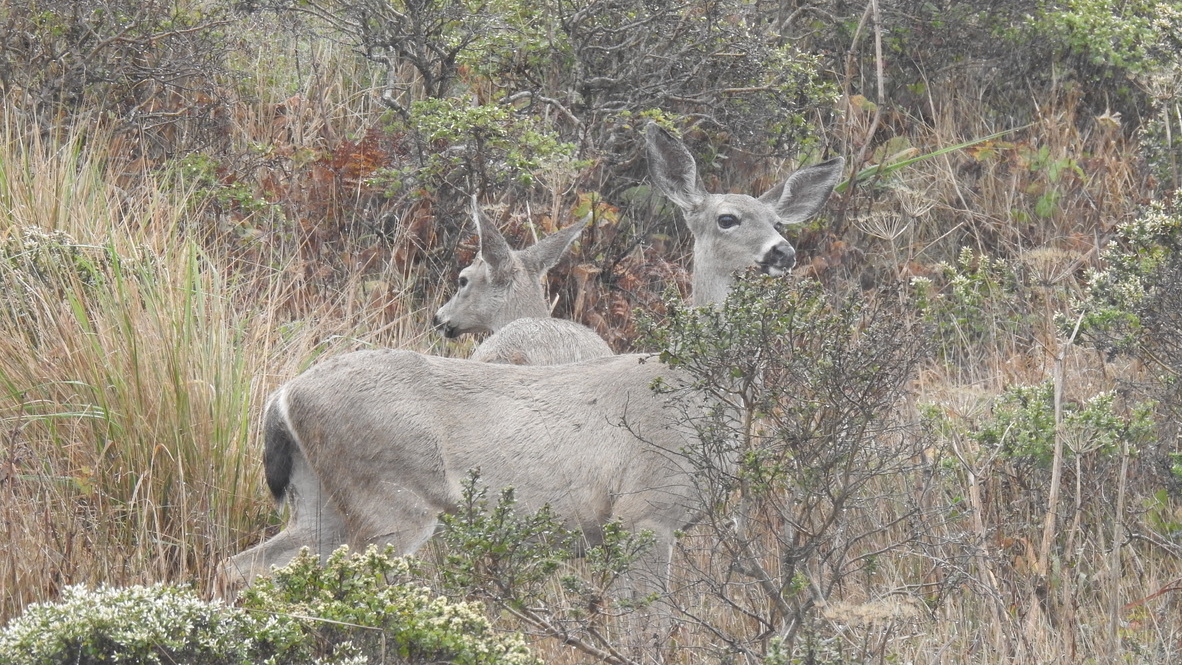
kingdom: Animalia
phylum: Chordata
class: Mammalia
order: Artiodactyla
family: Cervidae
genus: Odocoileus
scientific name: Odocoileus hemionus
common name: Mule deer
